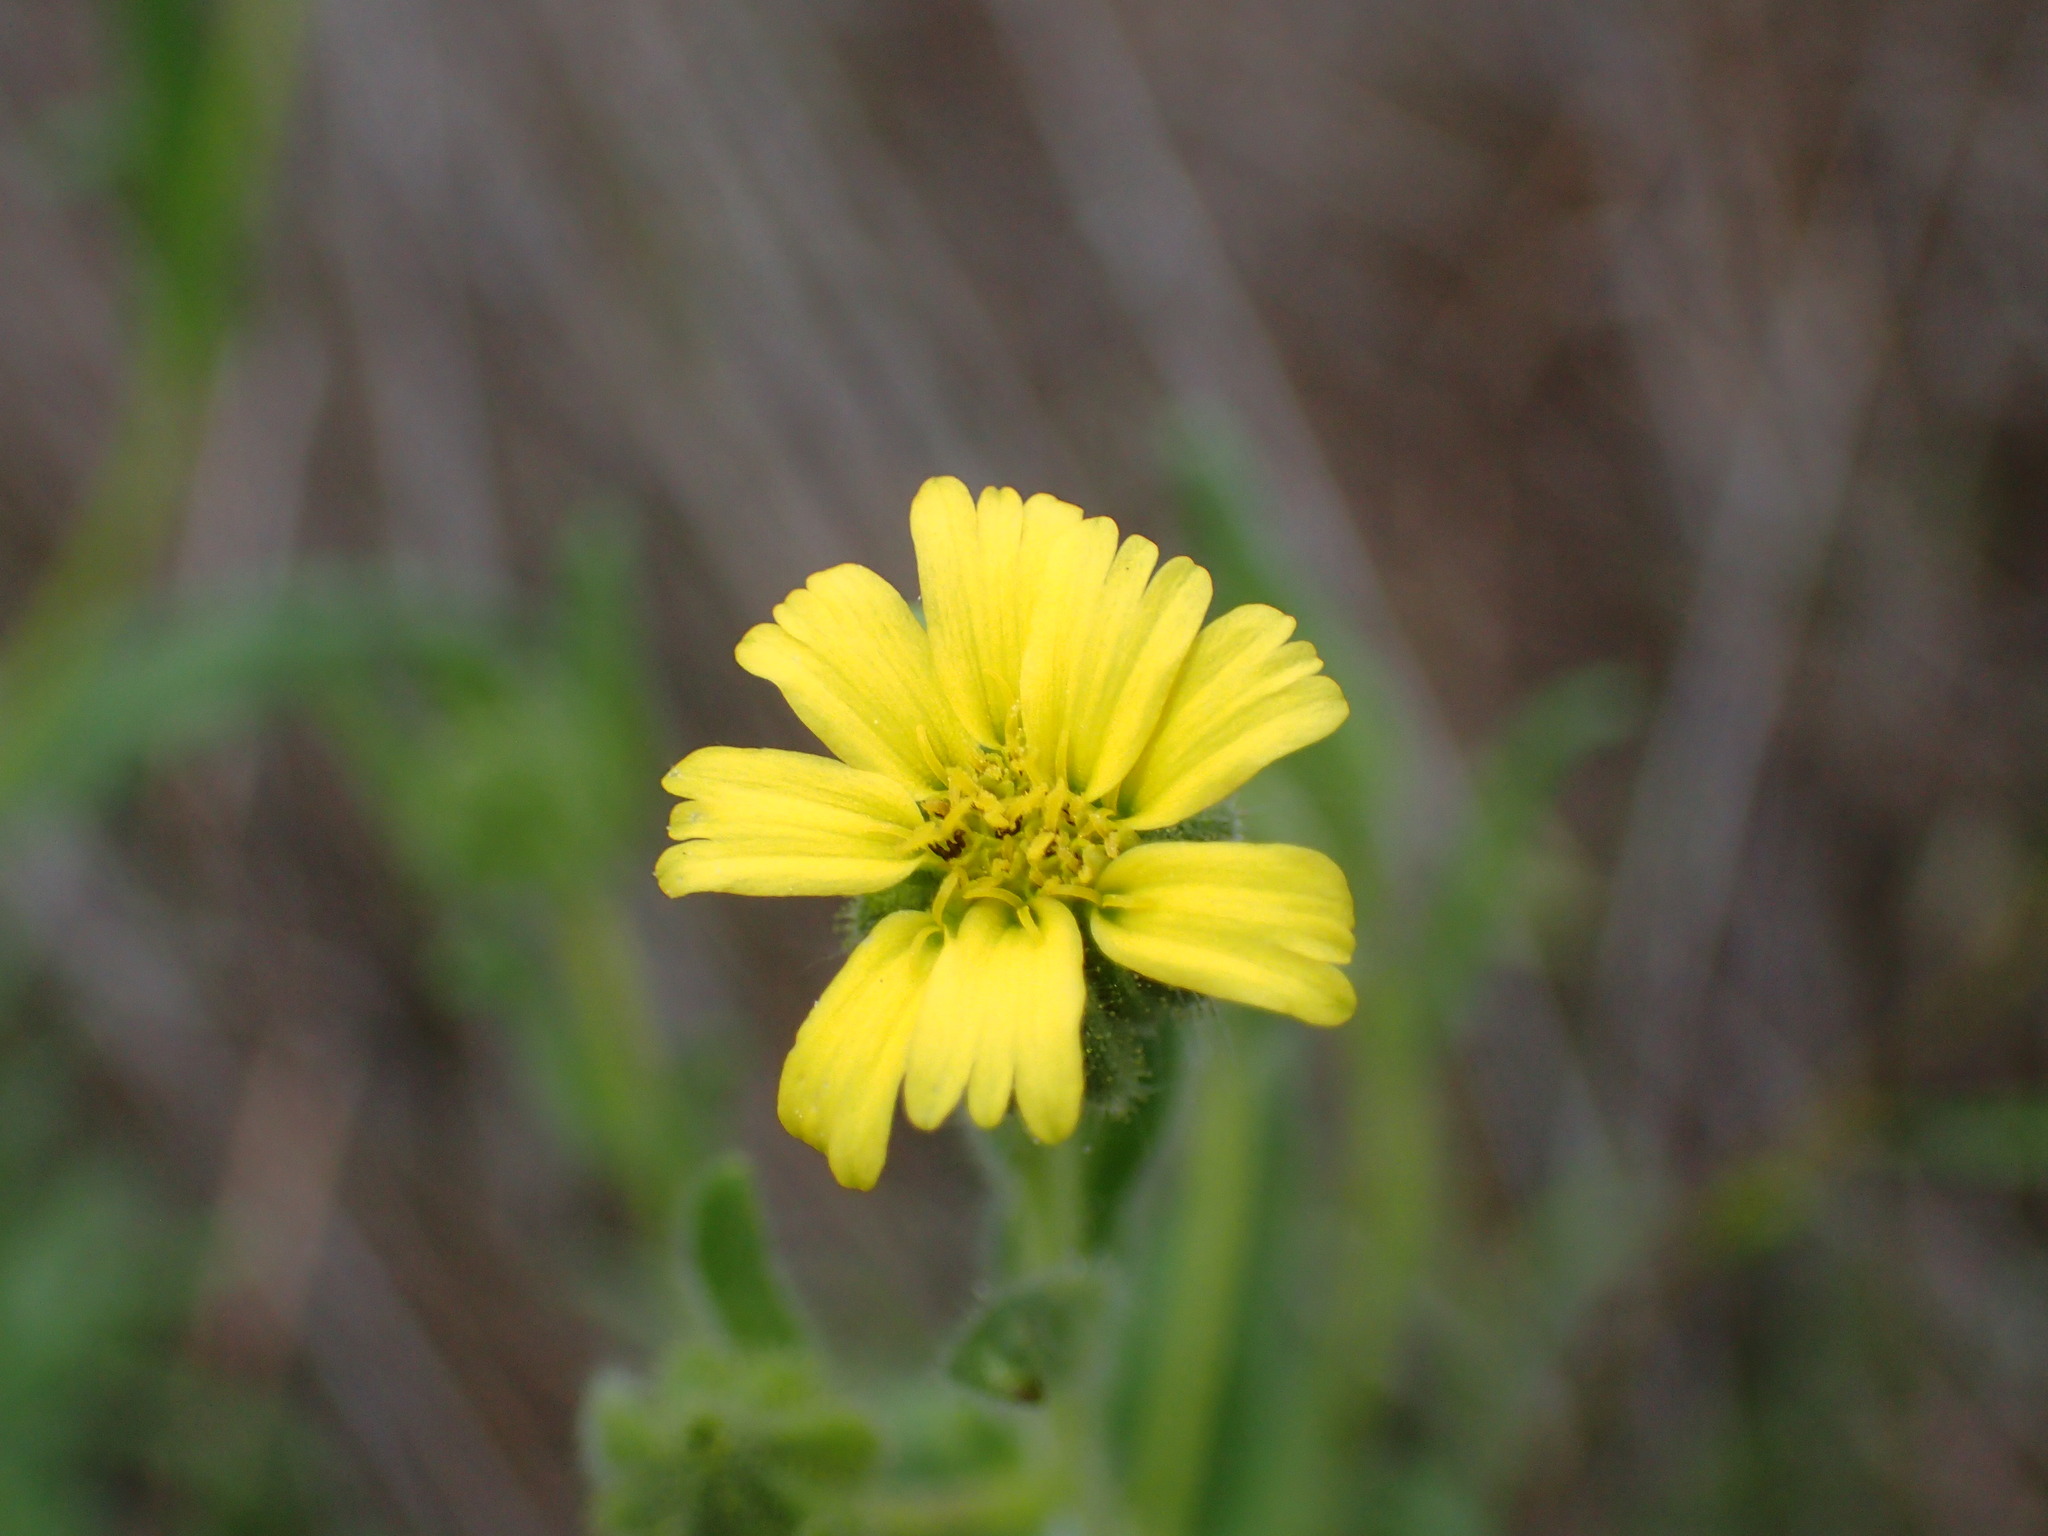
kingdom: Plantae
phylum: Tracheophyta
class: Magnoliopsida
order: Asterales
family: Asteraceae
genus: Madia
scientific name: Madia gracilis
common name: Grassy tarweed
